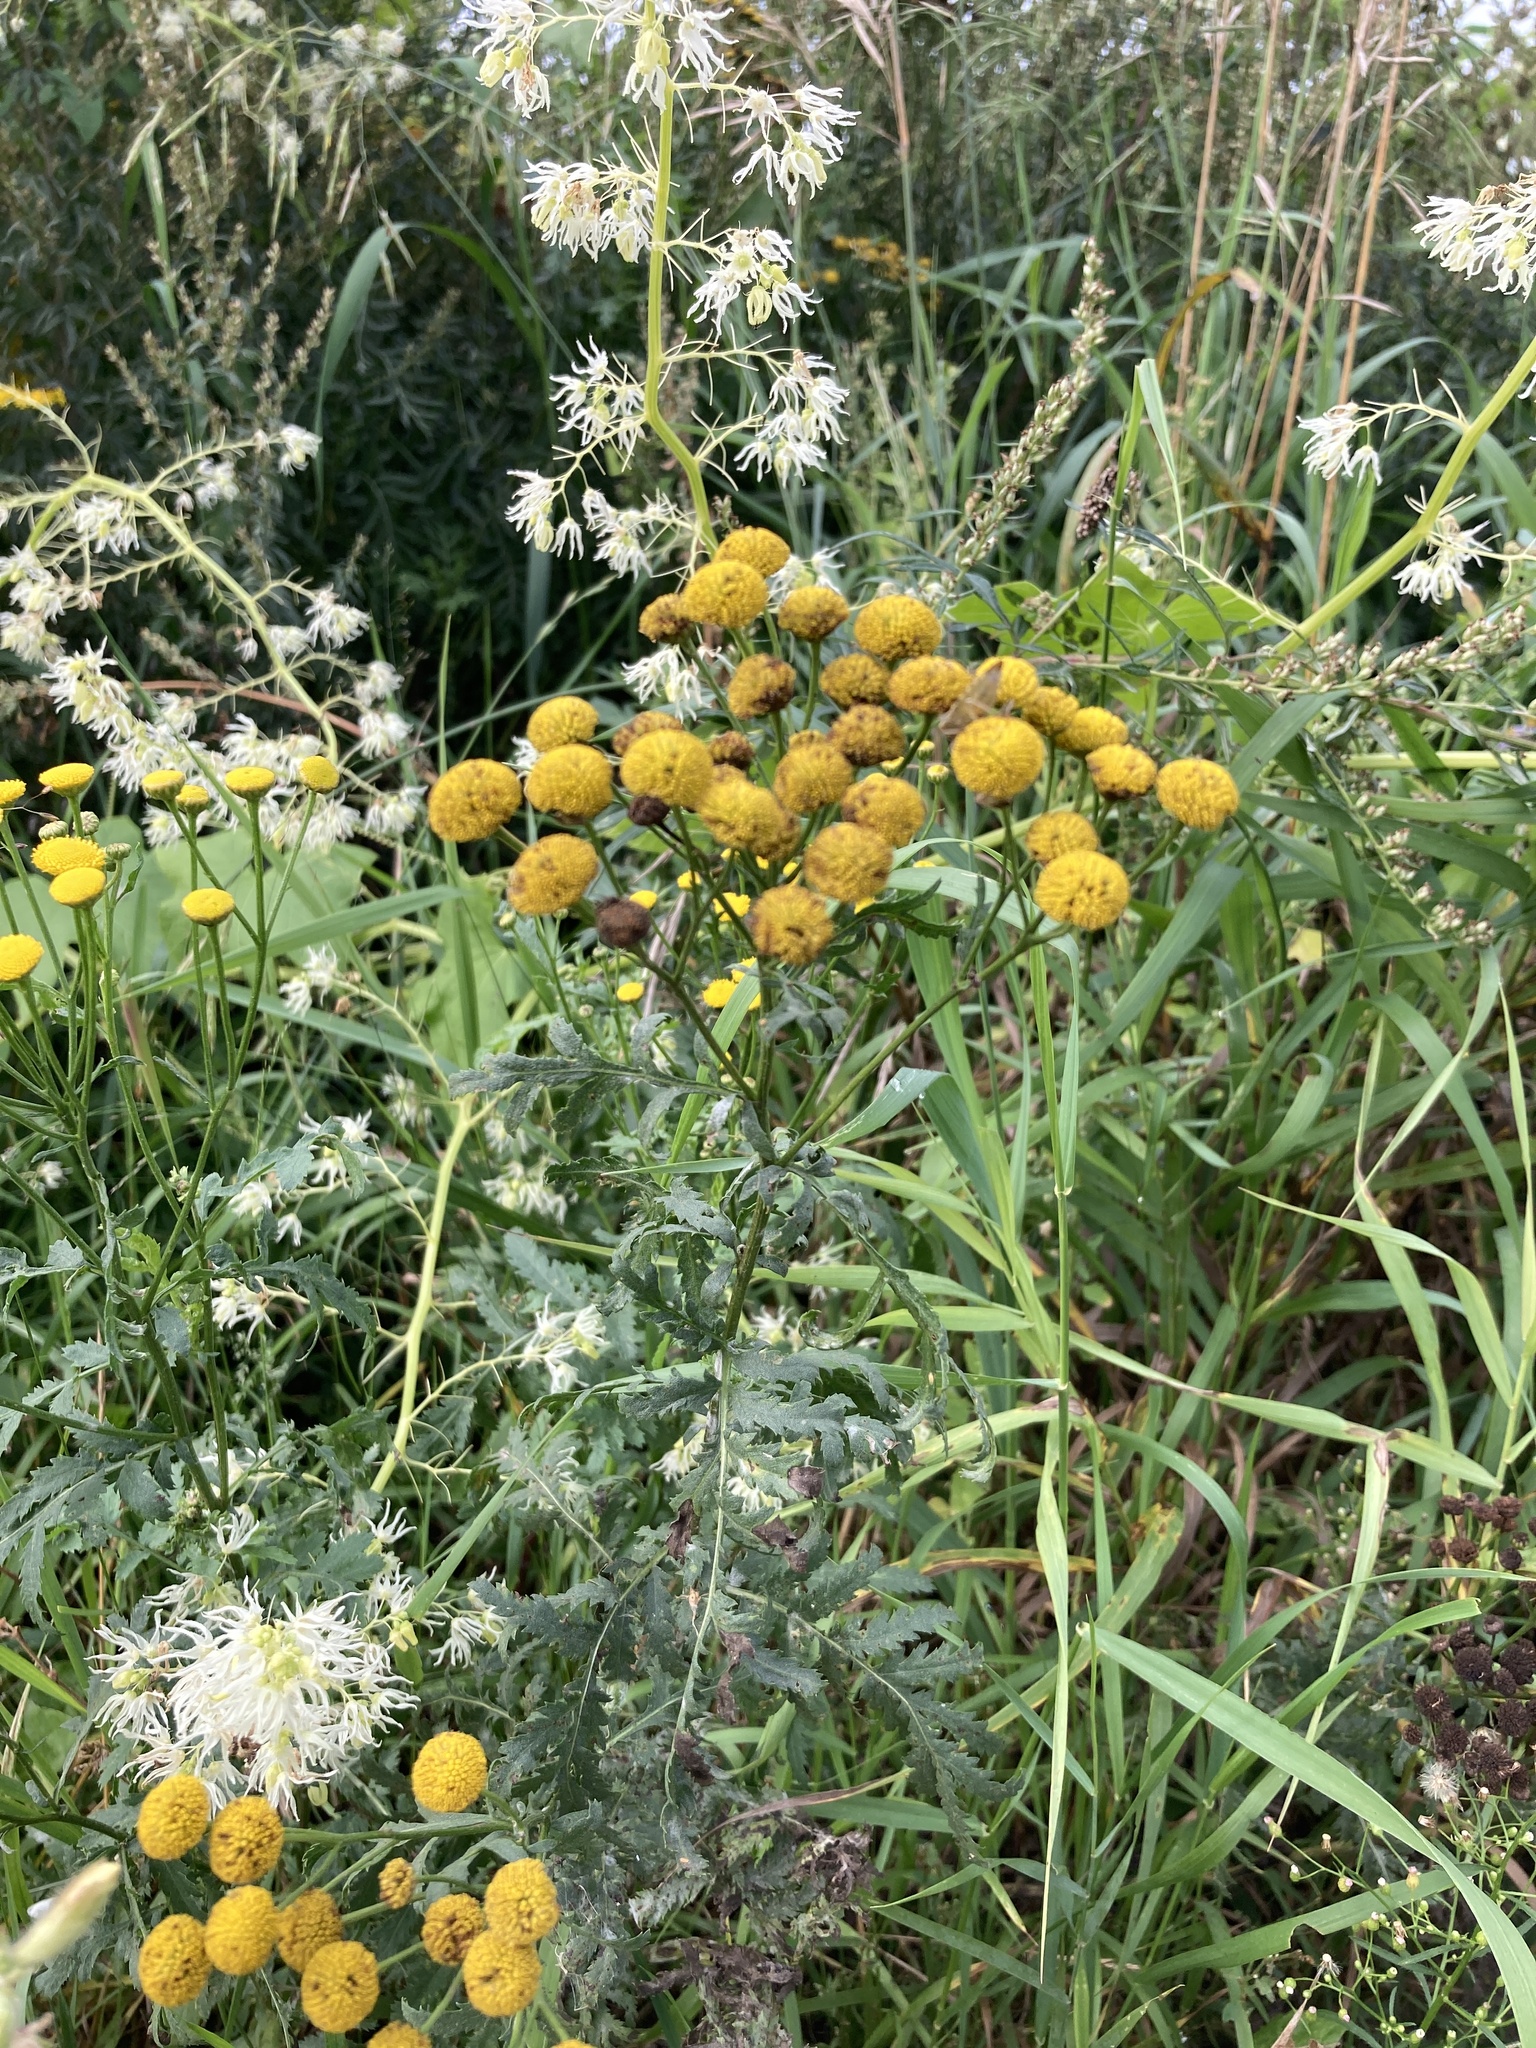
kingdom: Plantae
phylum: Tracheophyta
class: Magnoliopsida
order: Asterales
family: Asteraceae
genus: Tanacetum
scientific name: Tanacetum vulgare
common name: Common tansy
